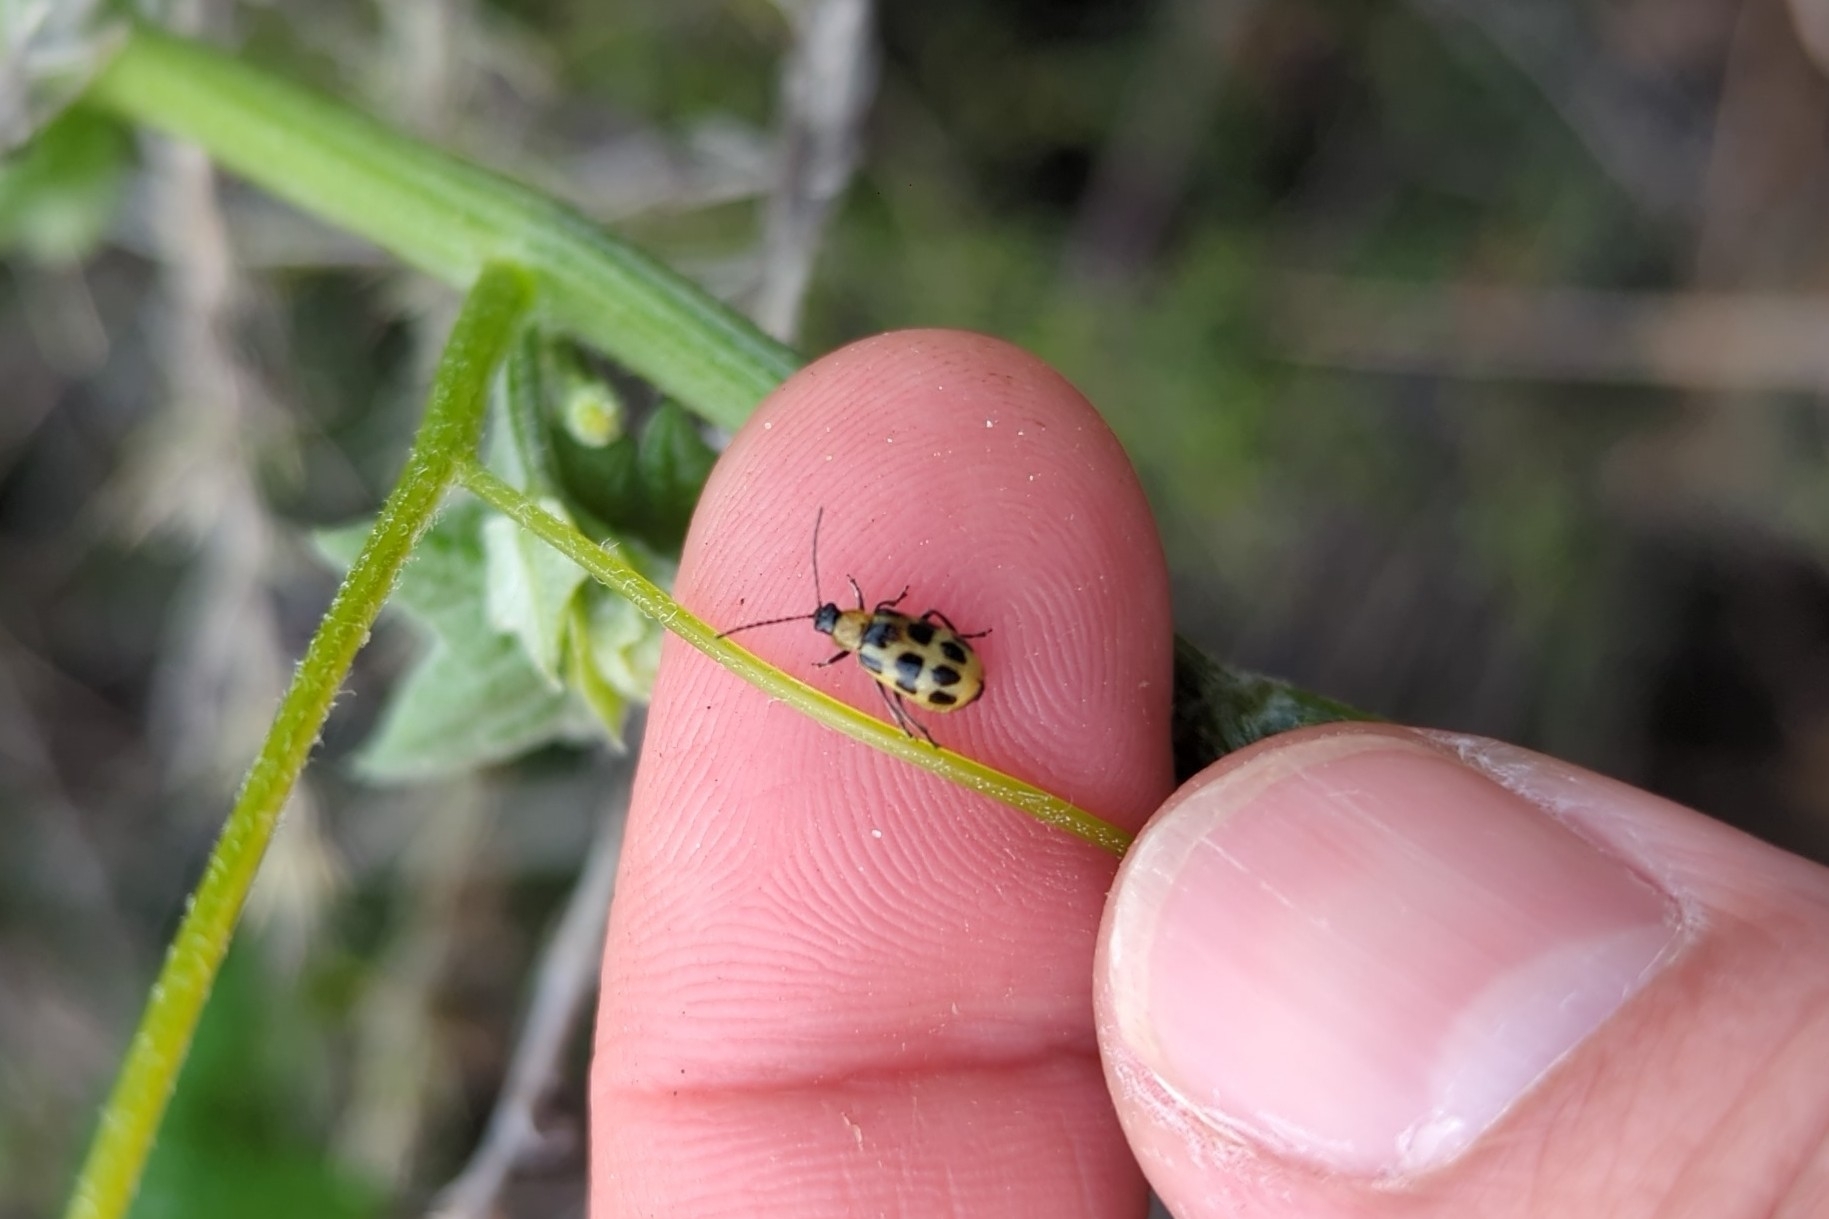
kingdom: Animalia
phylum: Arthropoda
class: Insecta
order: Coleoptera
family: Chrysomelidae
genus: Diabrotica
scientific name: Diabrotica undecimpunctata
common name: Spotted cucumber beetle
